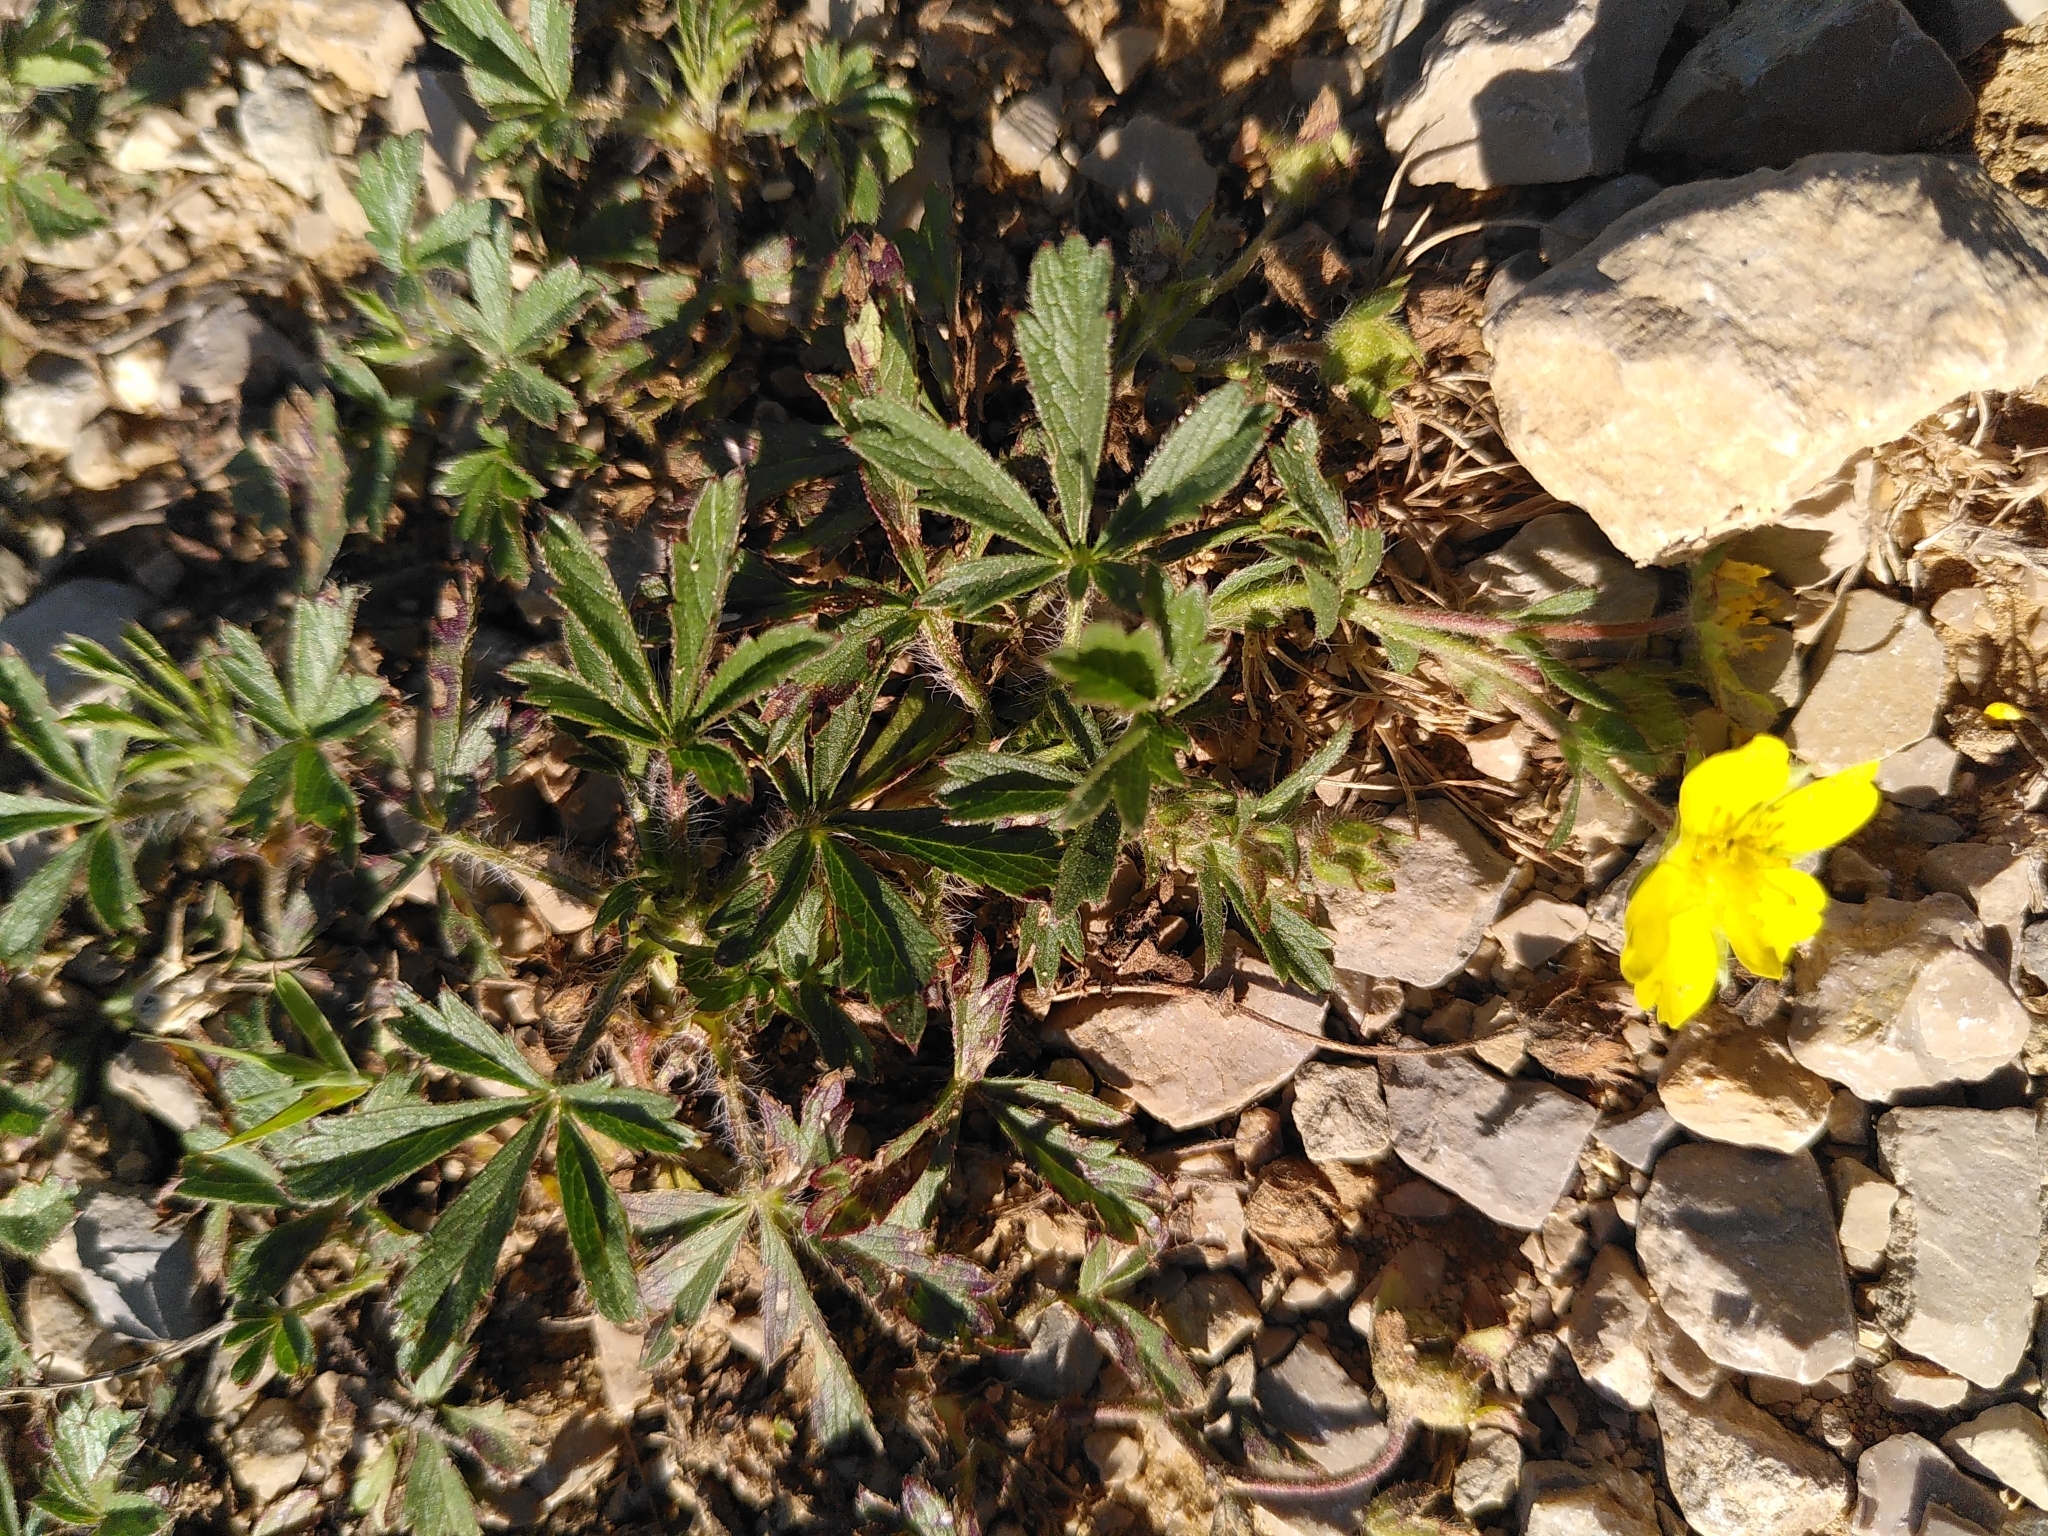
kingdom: Plantae
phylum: Tracheophyta
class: Magnoliopsida
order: Rosales
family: Rosaceae
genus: Potentilla
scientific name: Potentilla hirta
